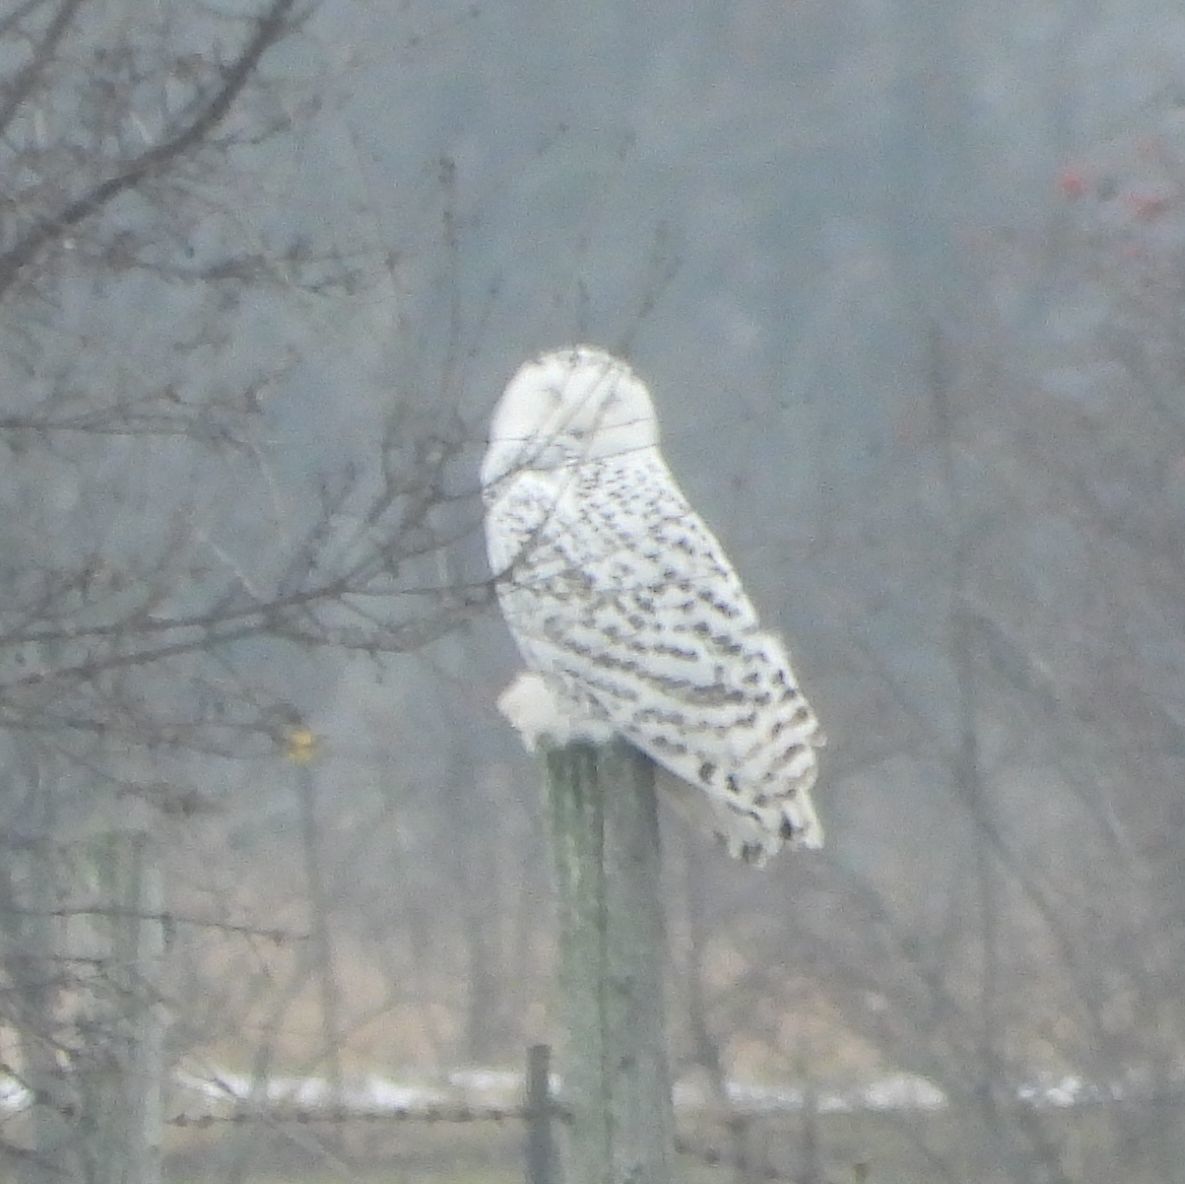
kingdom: Animalia
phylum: Chordata
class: Aves
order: Strigiformes
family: Strigidae
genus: Bubo
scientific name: Bubo scandiacus
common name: Snowy owl
